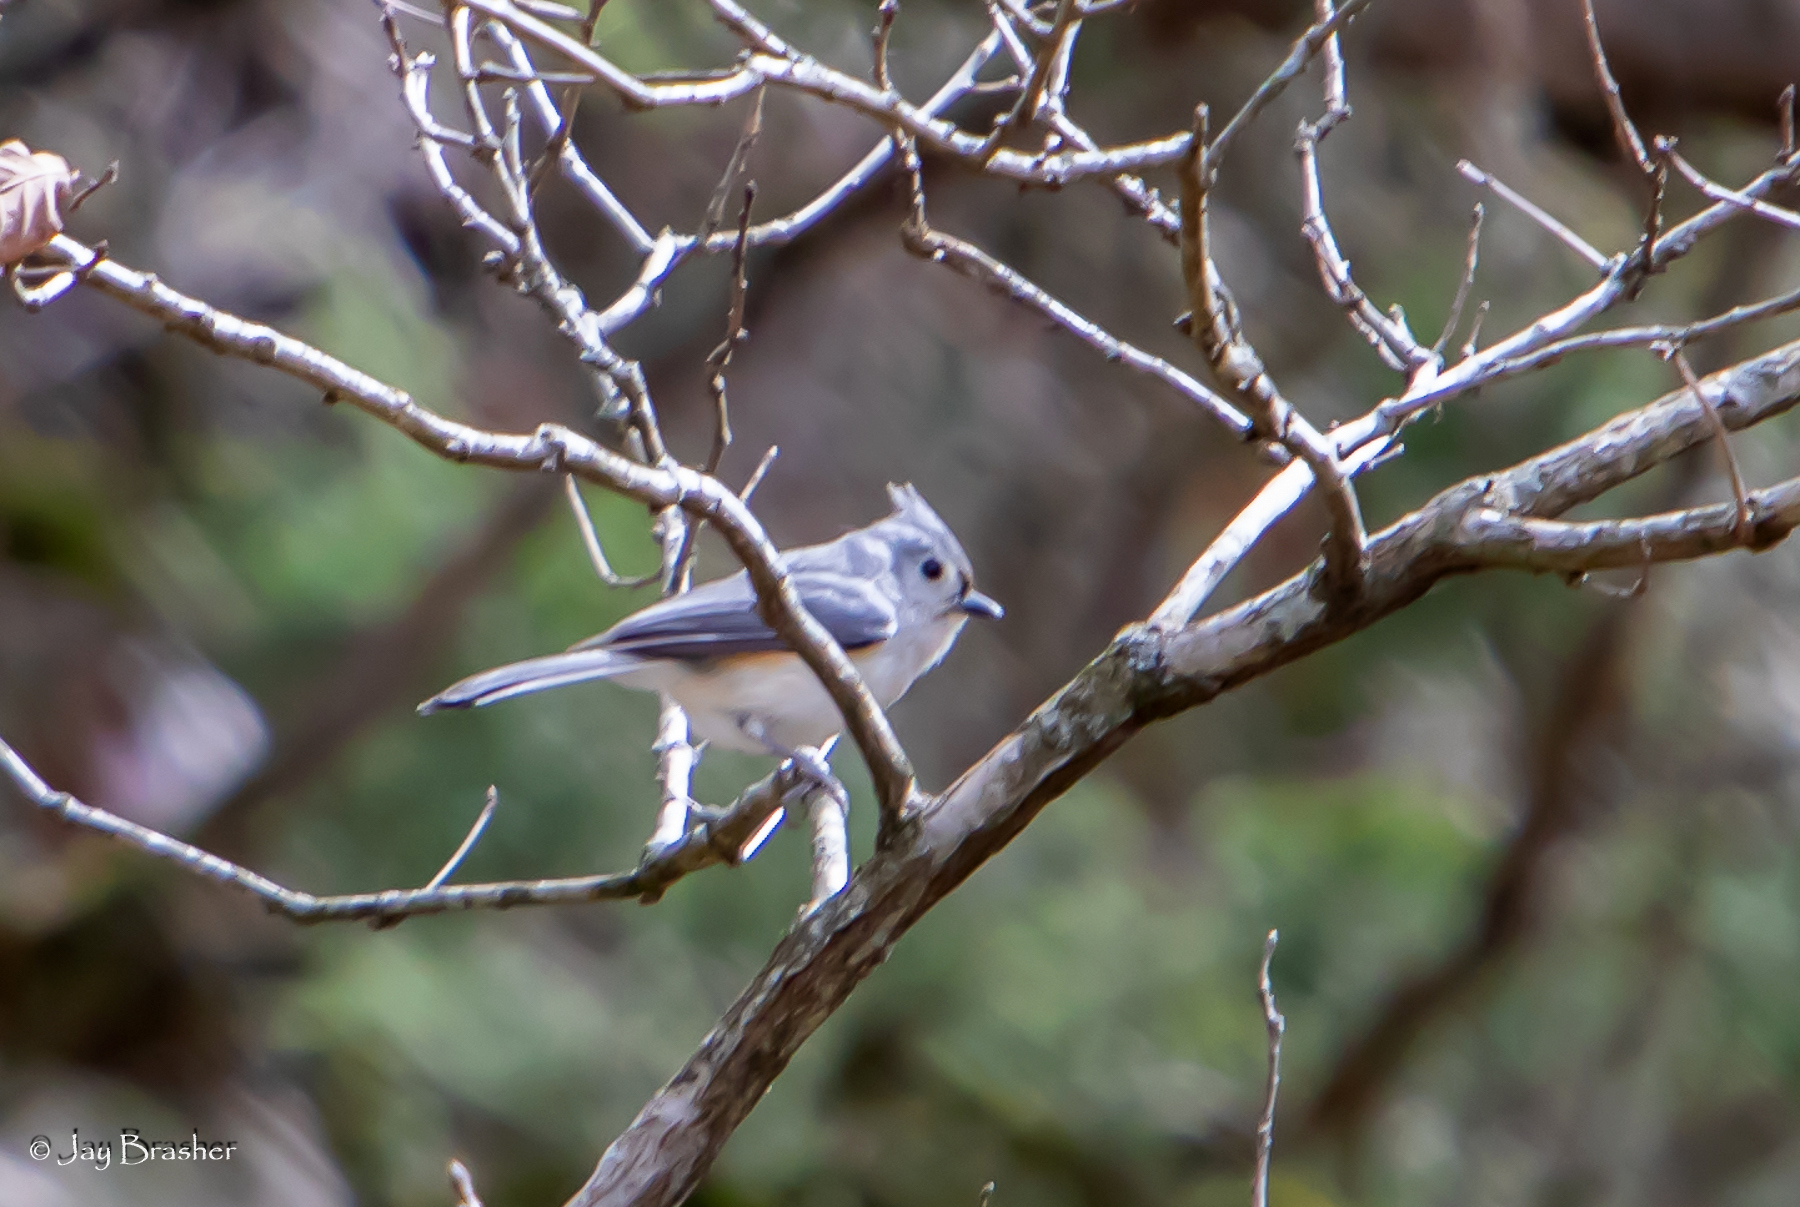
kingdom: Animalia
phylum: Chordata
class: Aves
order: Passeriformes
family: Paridae
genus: Baeolophus
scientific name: Baeolophus bicolor
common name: Tufted titmouse
